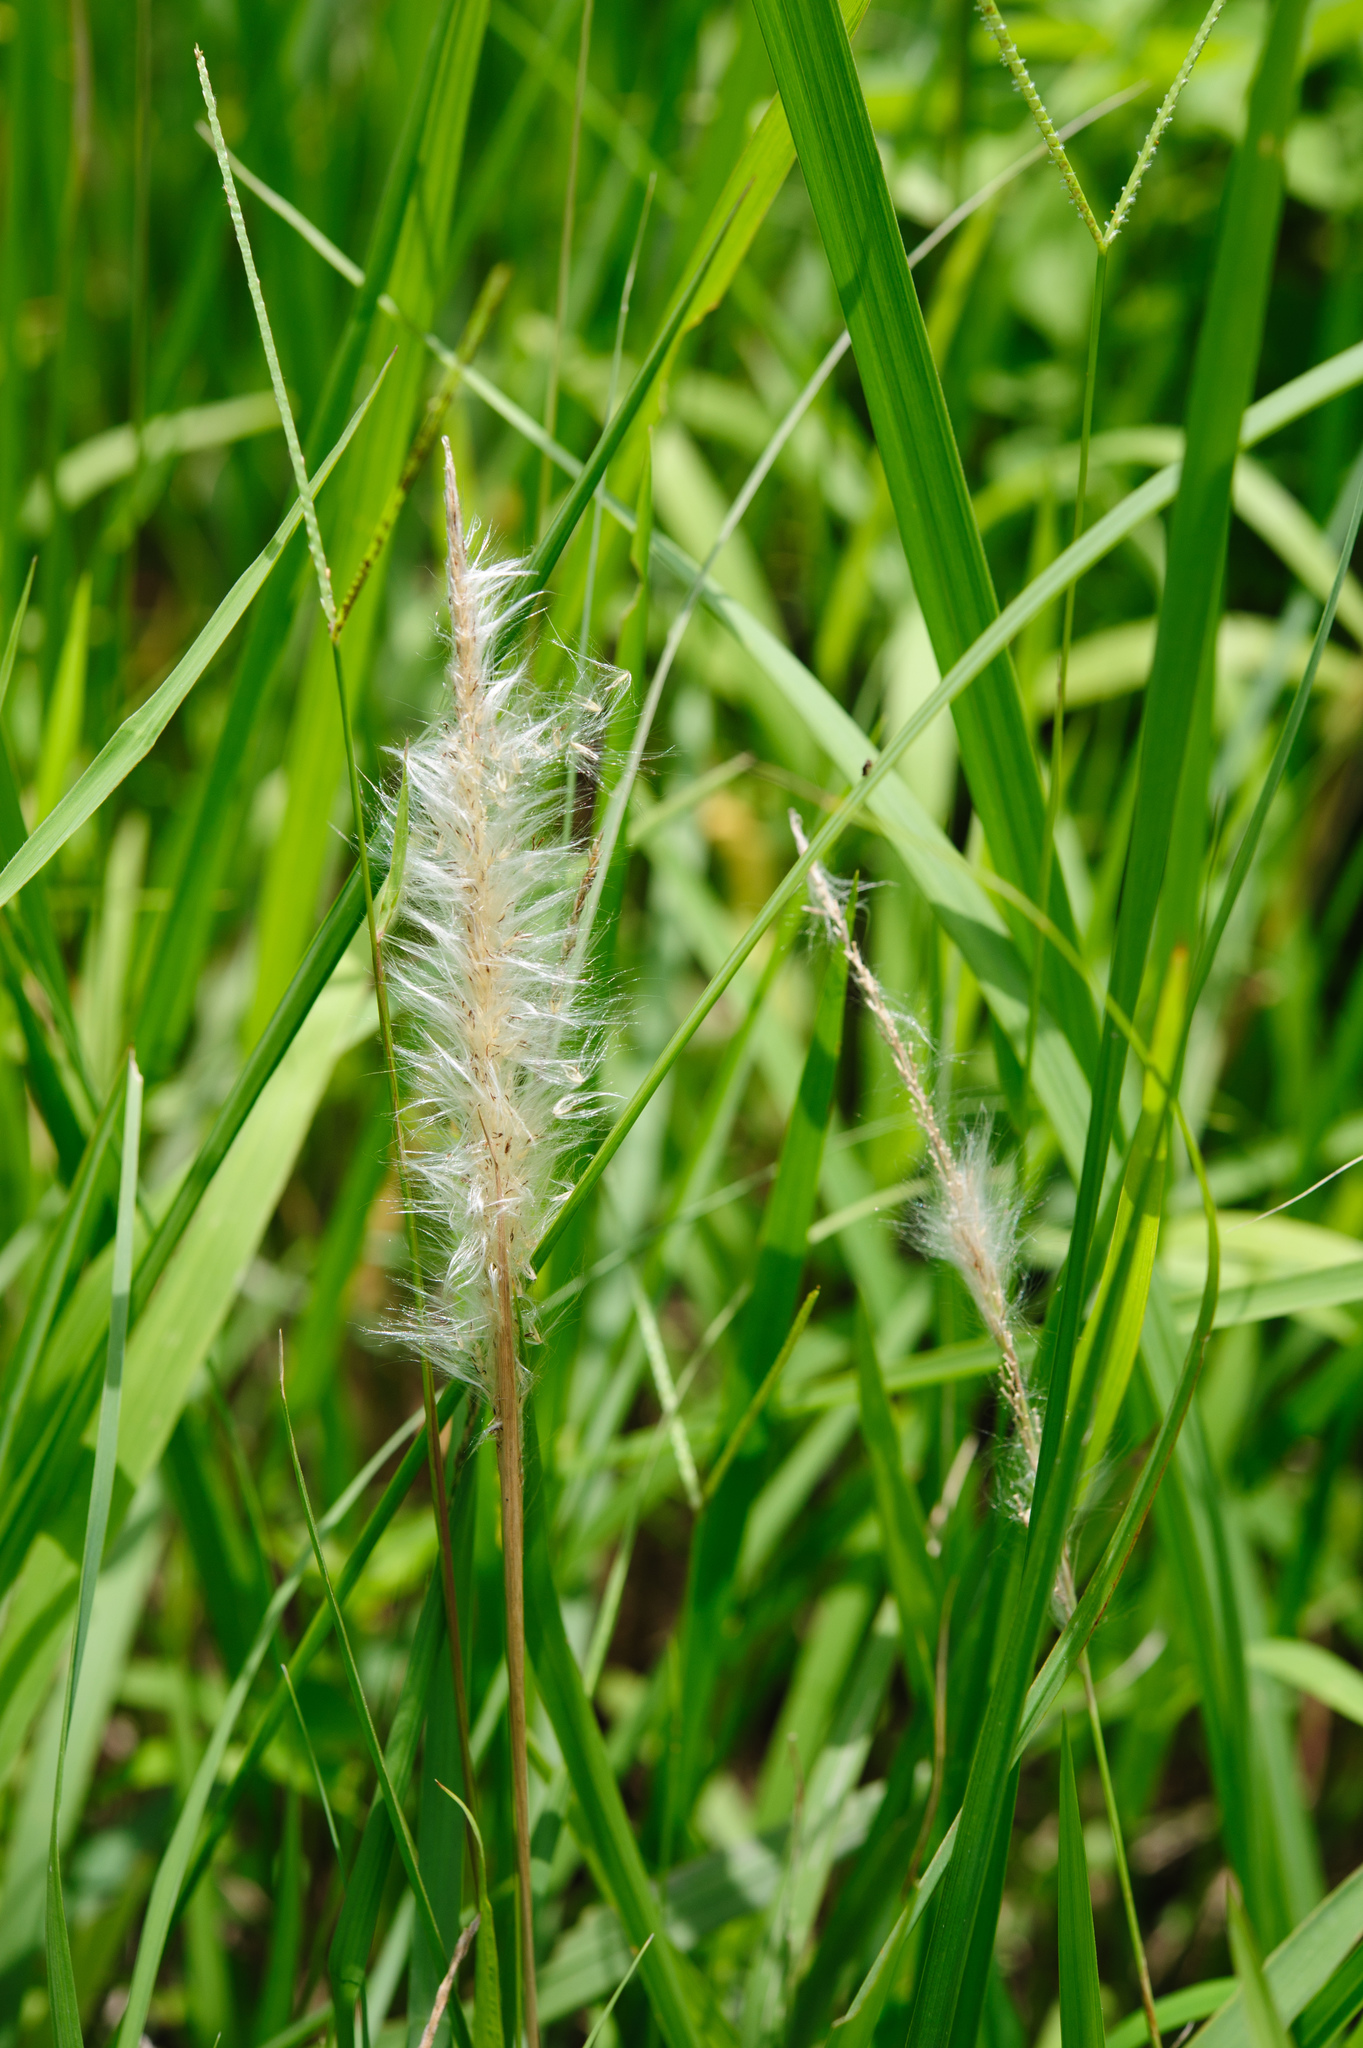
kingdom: Plantae
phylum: Tracheophyta
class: Liliopsida
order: Poales
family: Poaceae
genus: Imperata
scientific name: Imperata cylindrica
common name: Cogongrass
